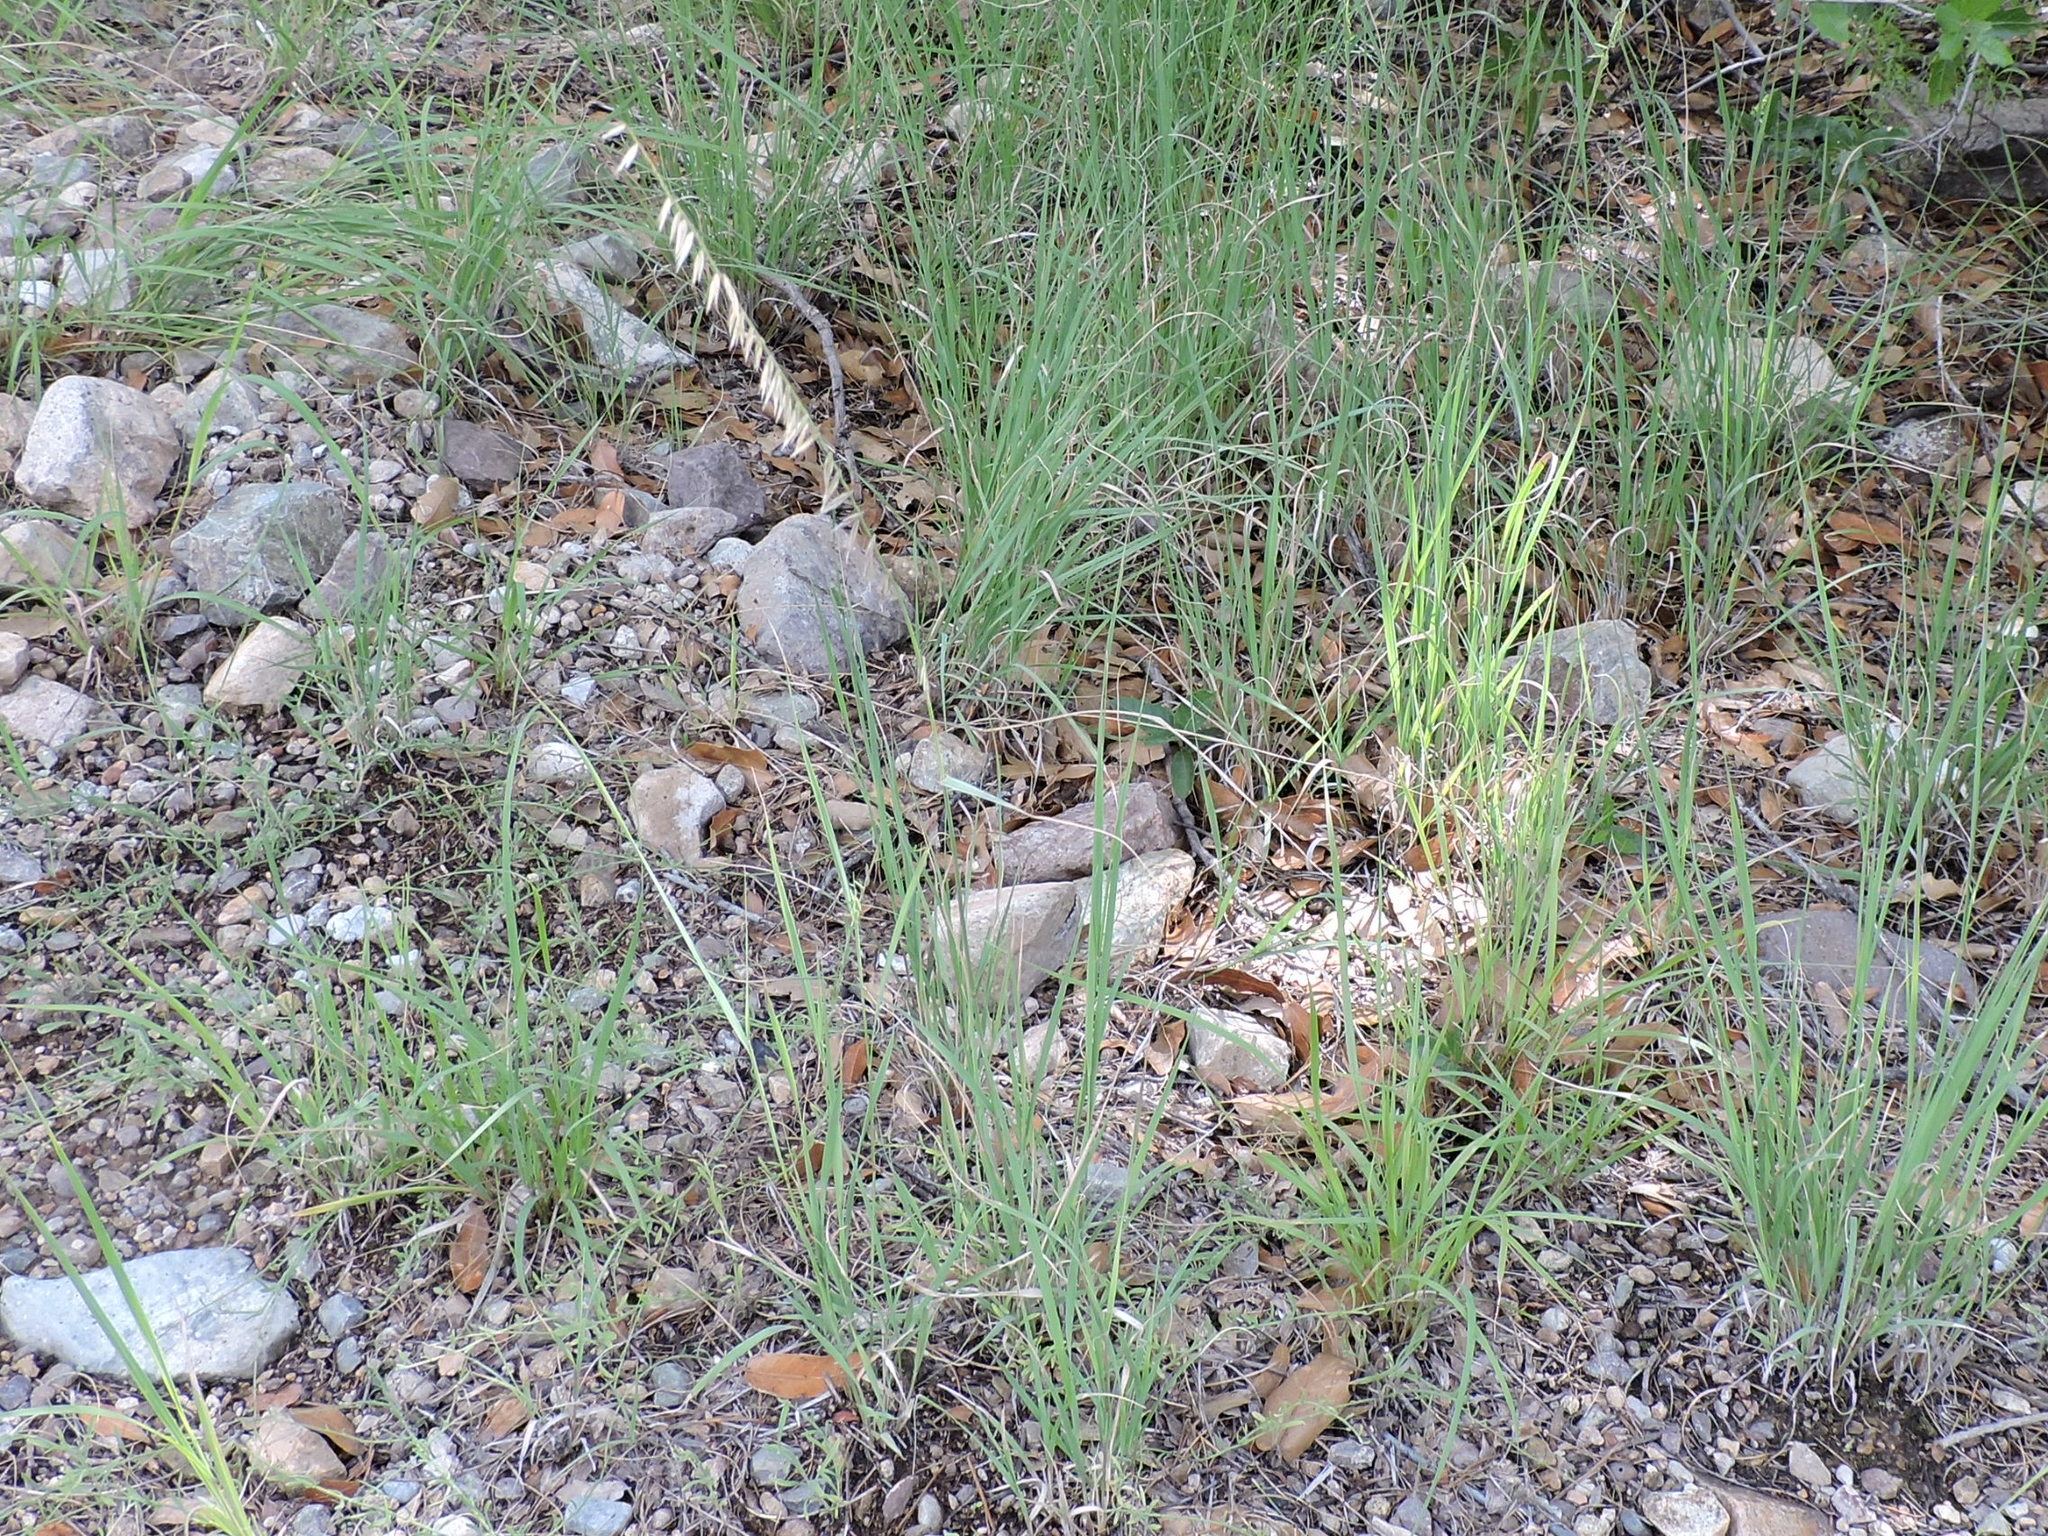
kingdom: Plantae
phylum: Tracheophyta
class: Liliopsida
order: Poales
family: Poaceae
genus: Bouteloua
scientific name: Bouteloua curtipendula
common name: Side-oats grama
